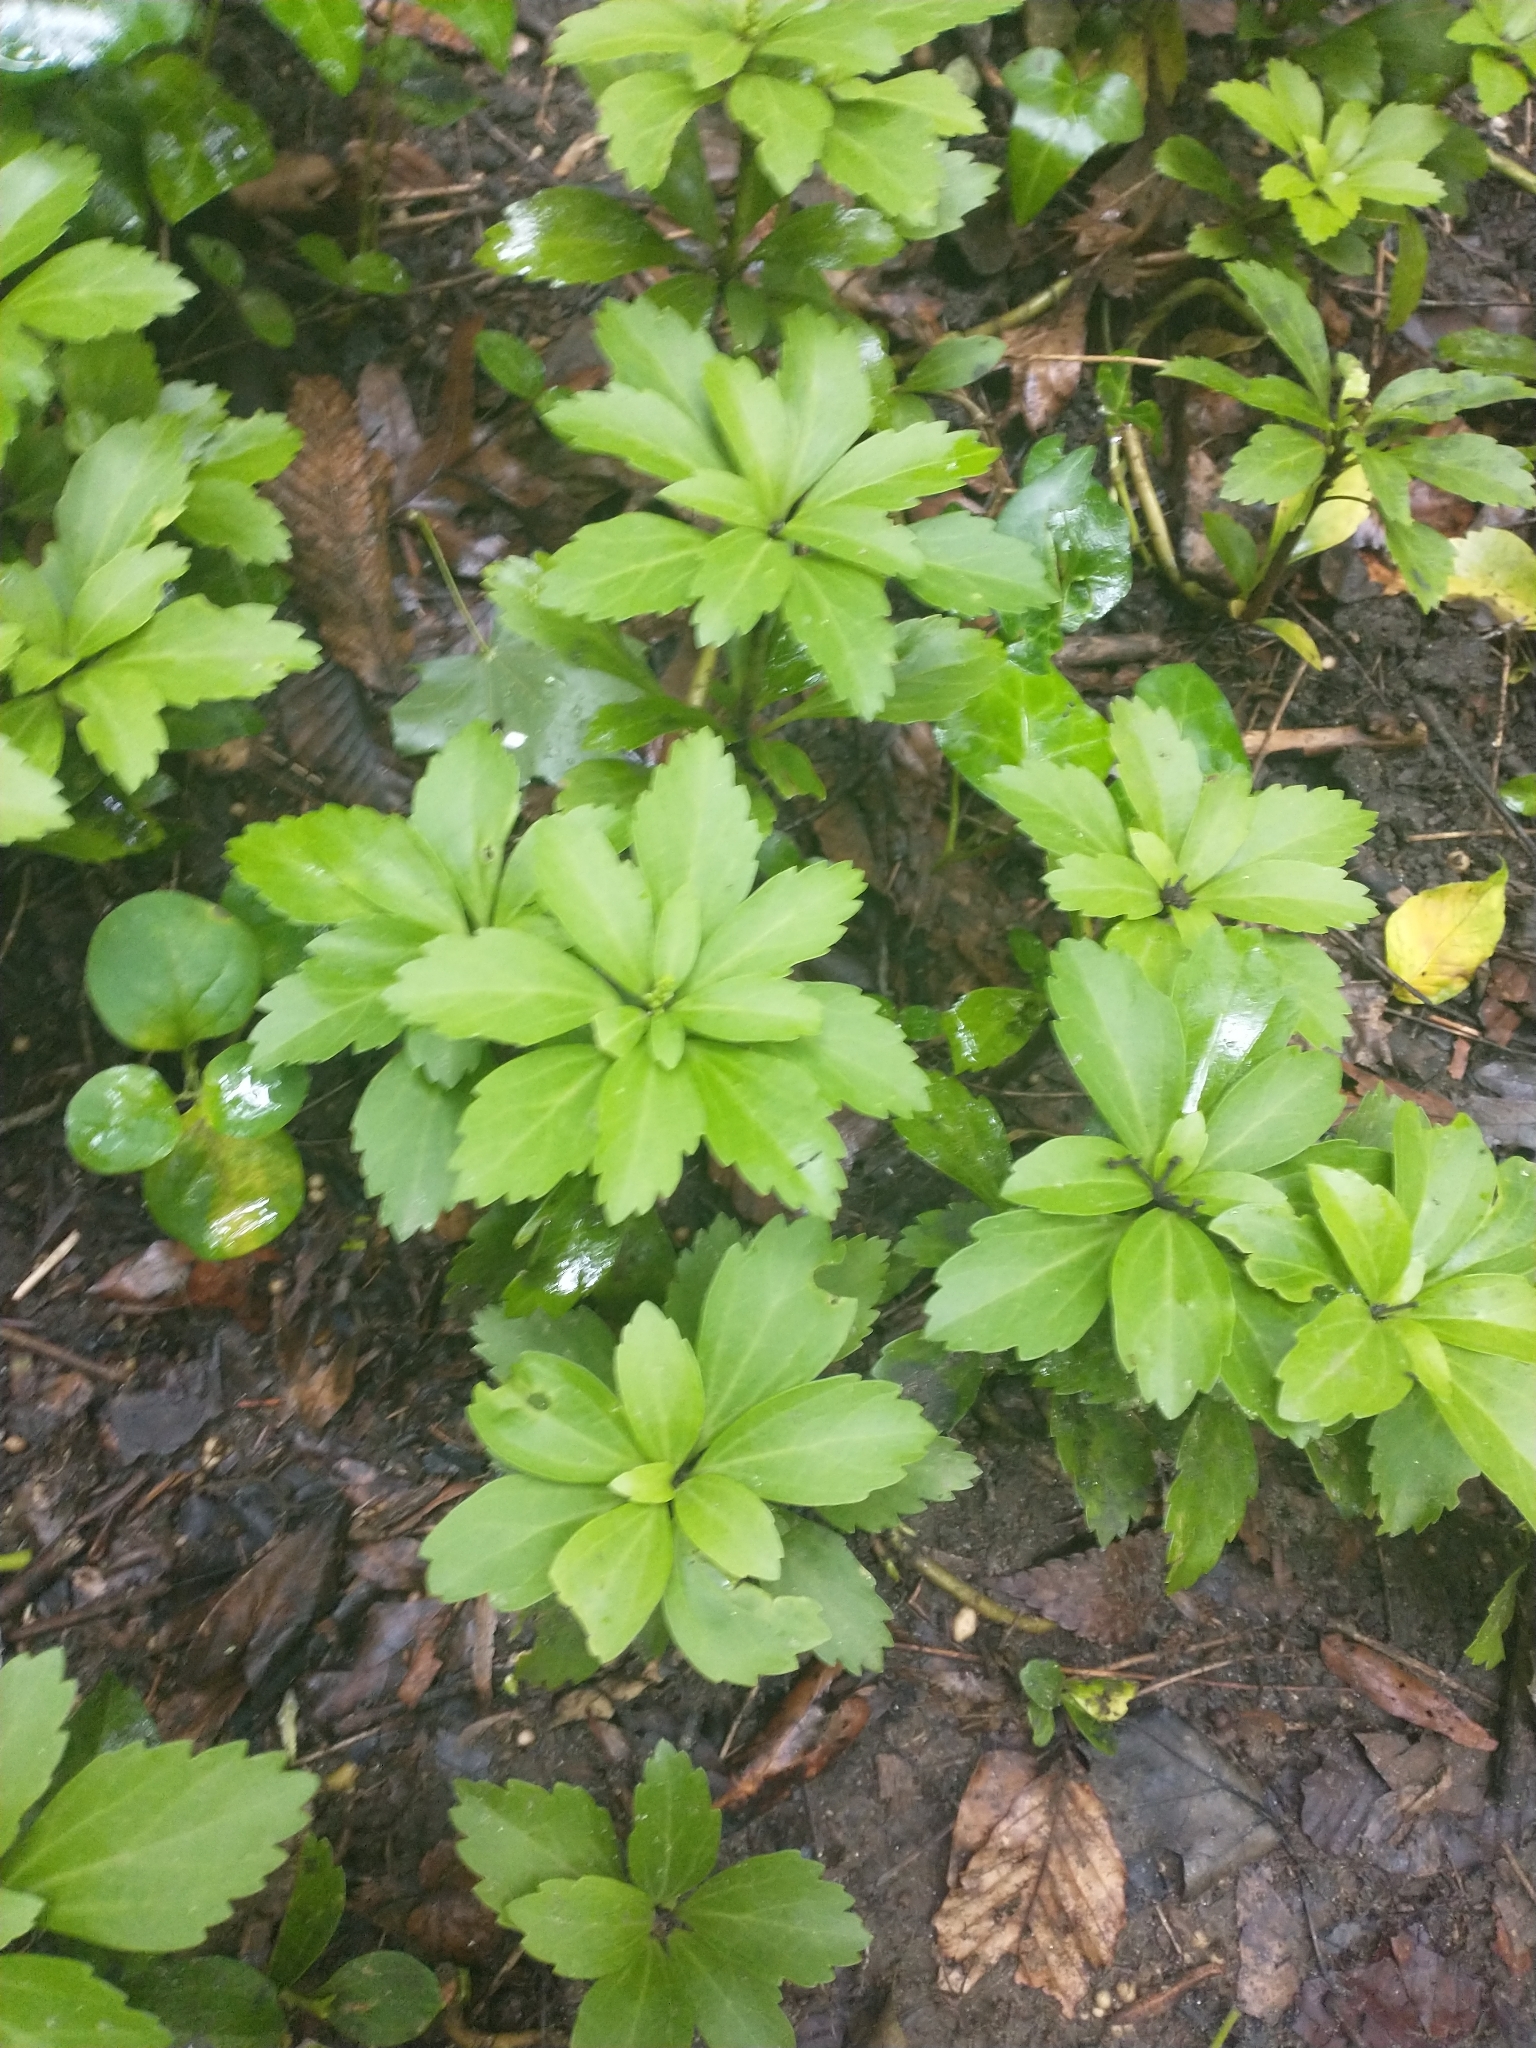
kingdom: Plantae
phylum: Tracheophyta
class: Magnoliopsida
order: Buxales
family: Buxaceae
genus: Pachysandra
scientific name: Pachysandra terminalis
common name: Japanese pachysandra
